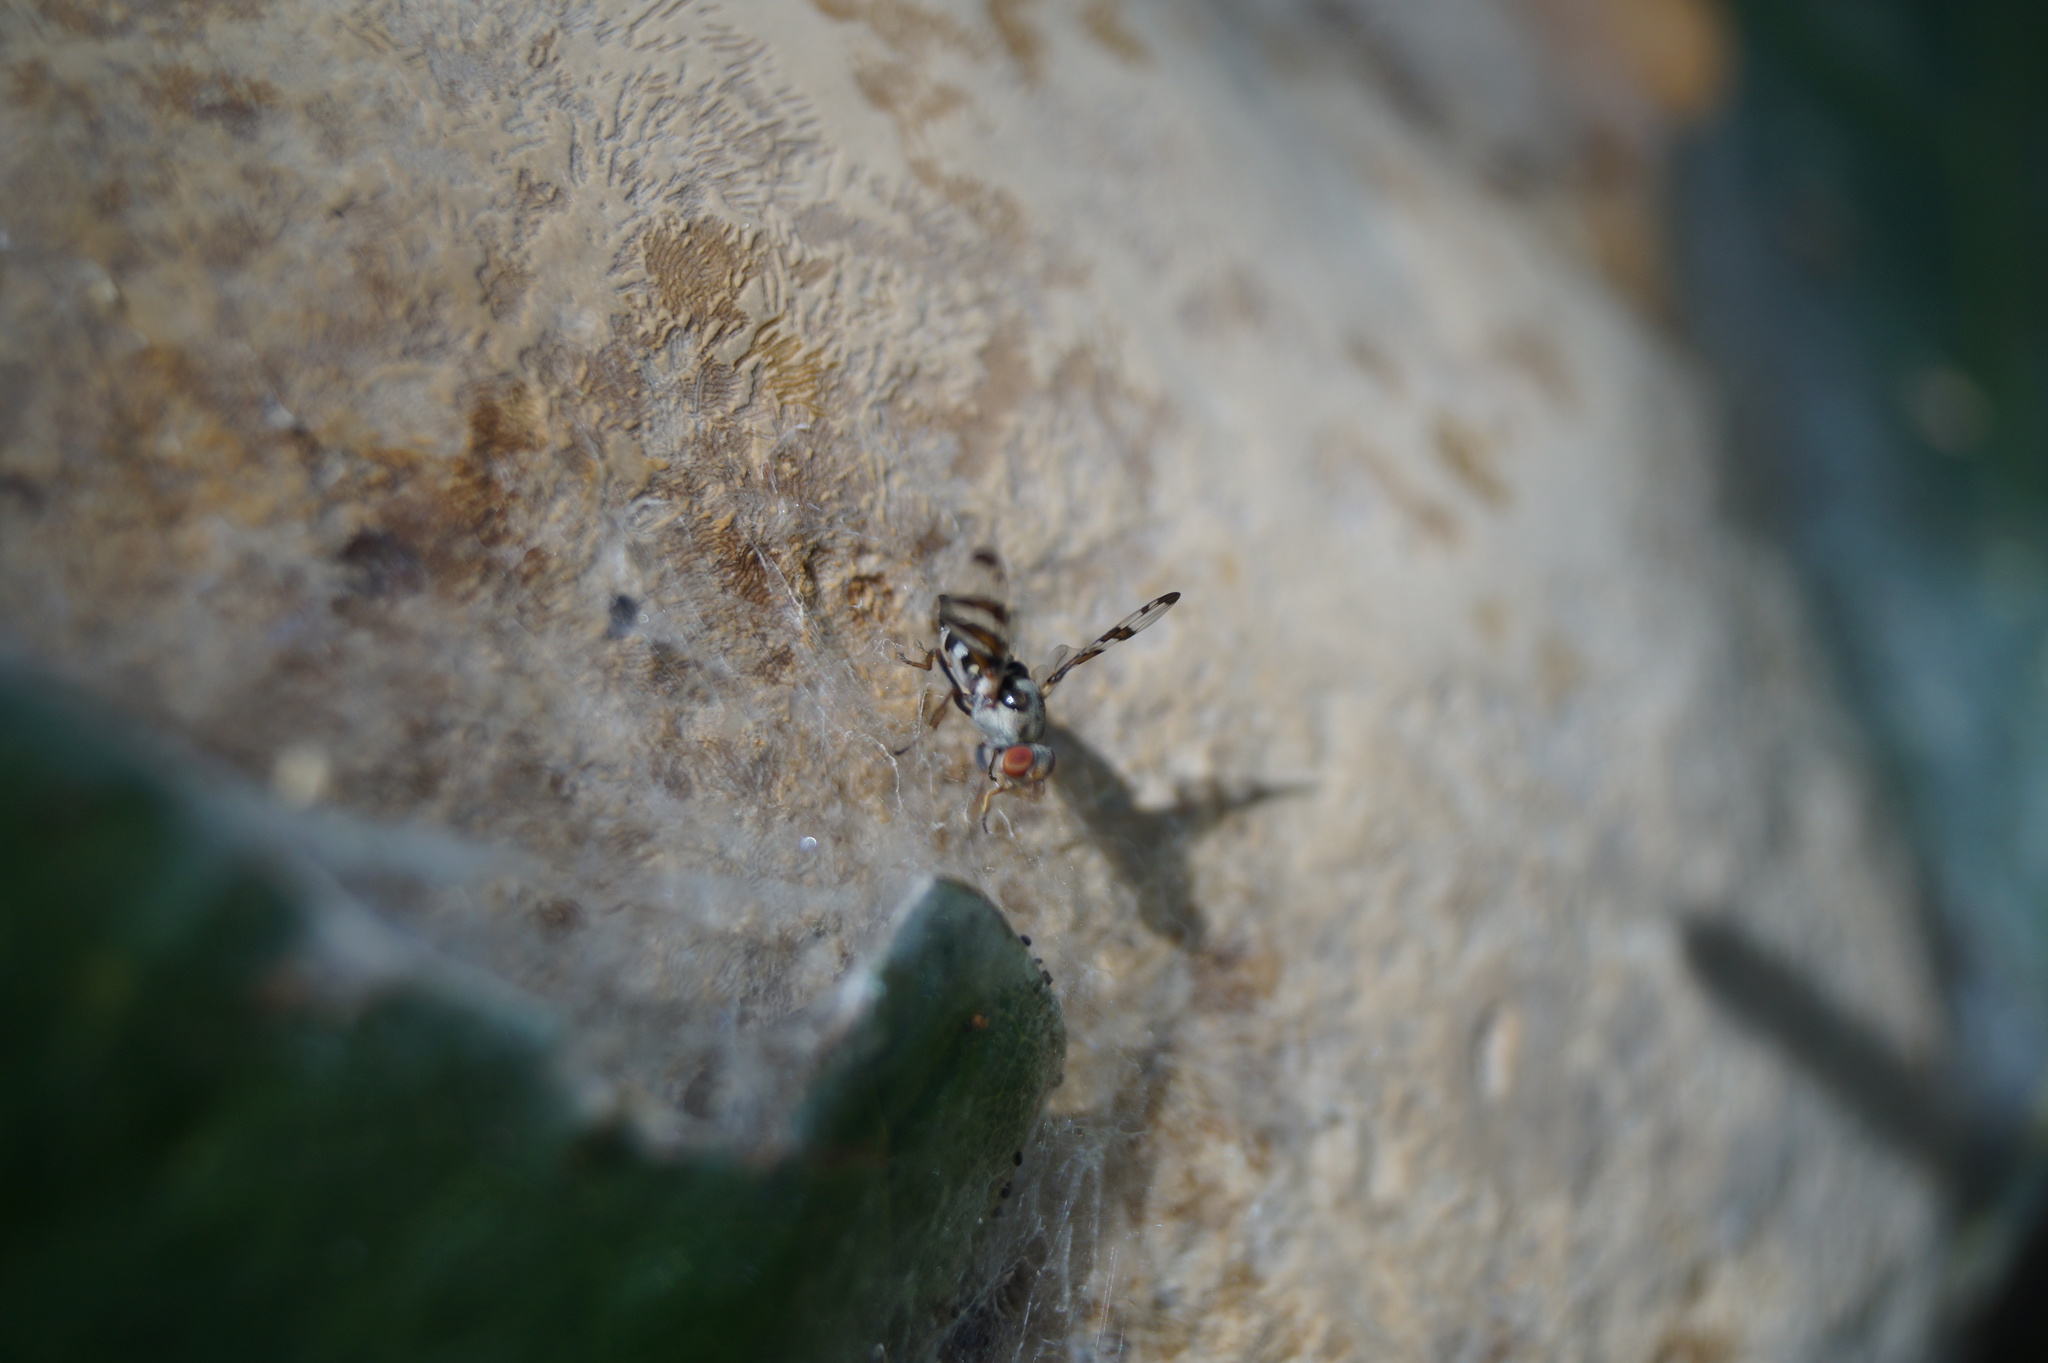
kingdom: Animalia
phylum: Arthropoda
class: Insecta
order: Diptera
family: Ulidiidae
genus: Myennis
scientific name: Myennis octopunctata
